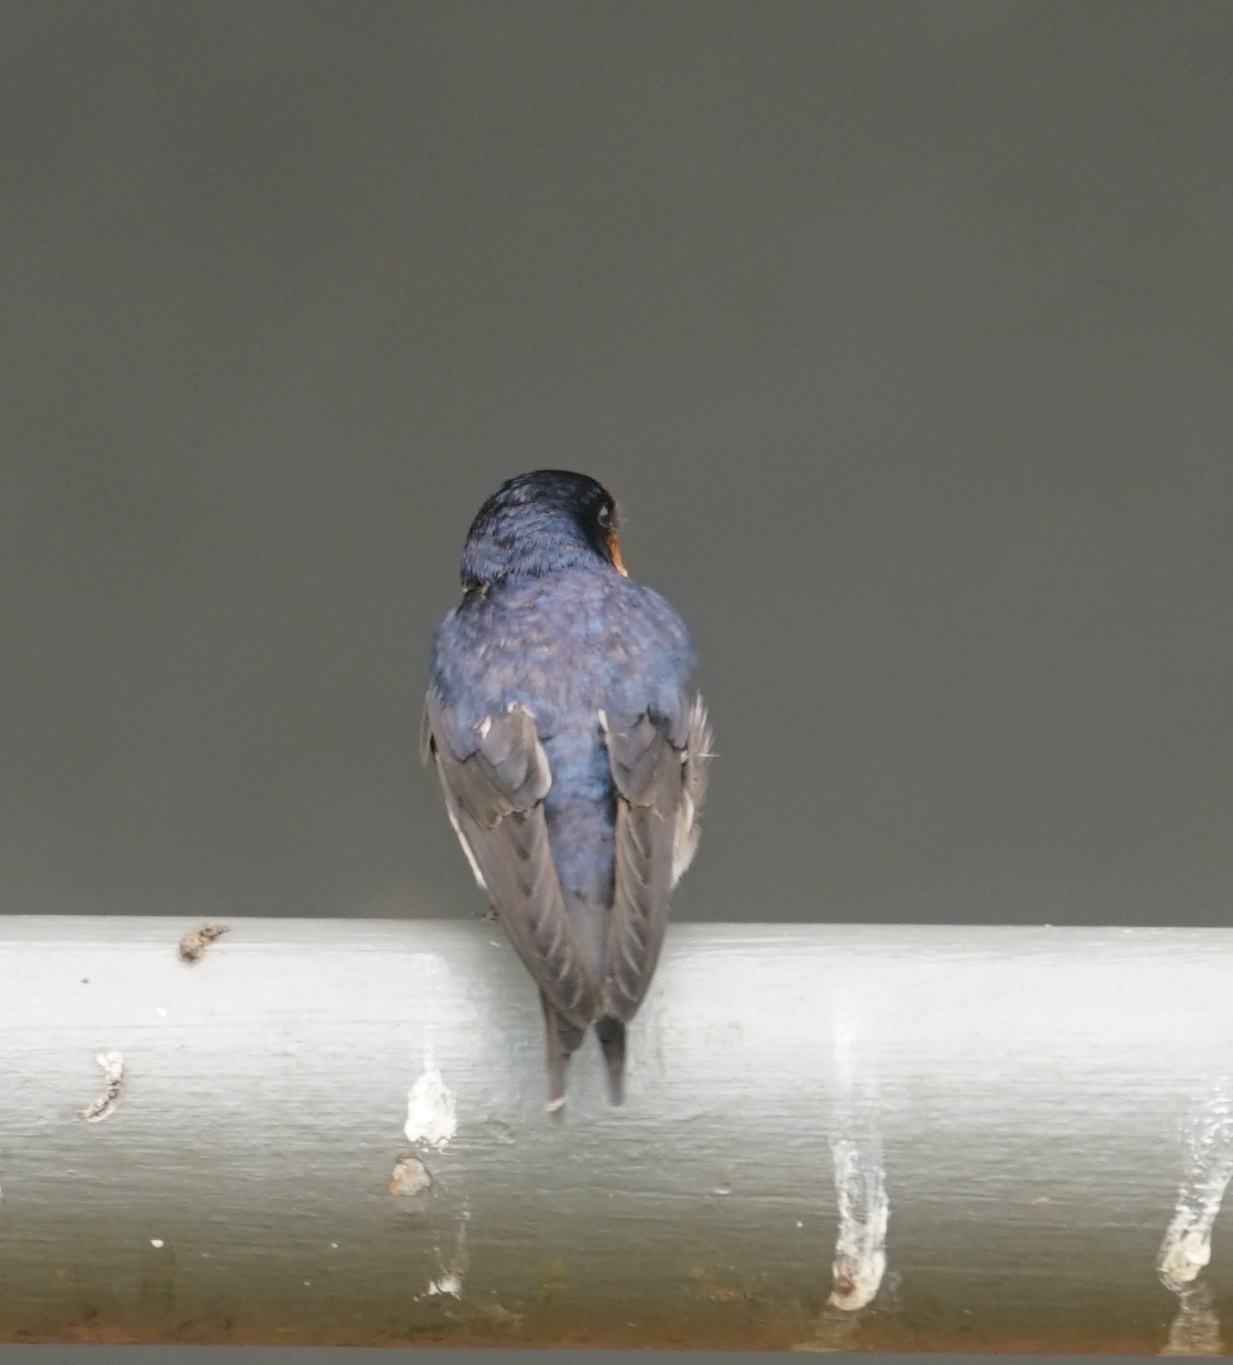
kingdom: Animalia
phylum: Chordata
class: Aves
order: Passeriformes
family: Hirundinidae
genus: Hirundo
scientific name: Hirundo neoxena
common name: Welcome swallow
